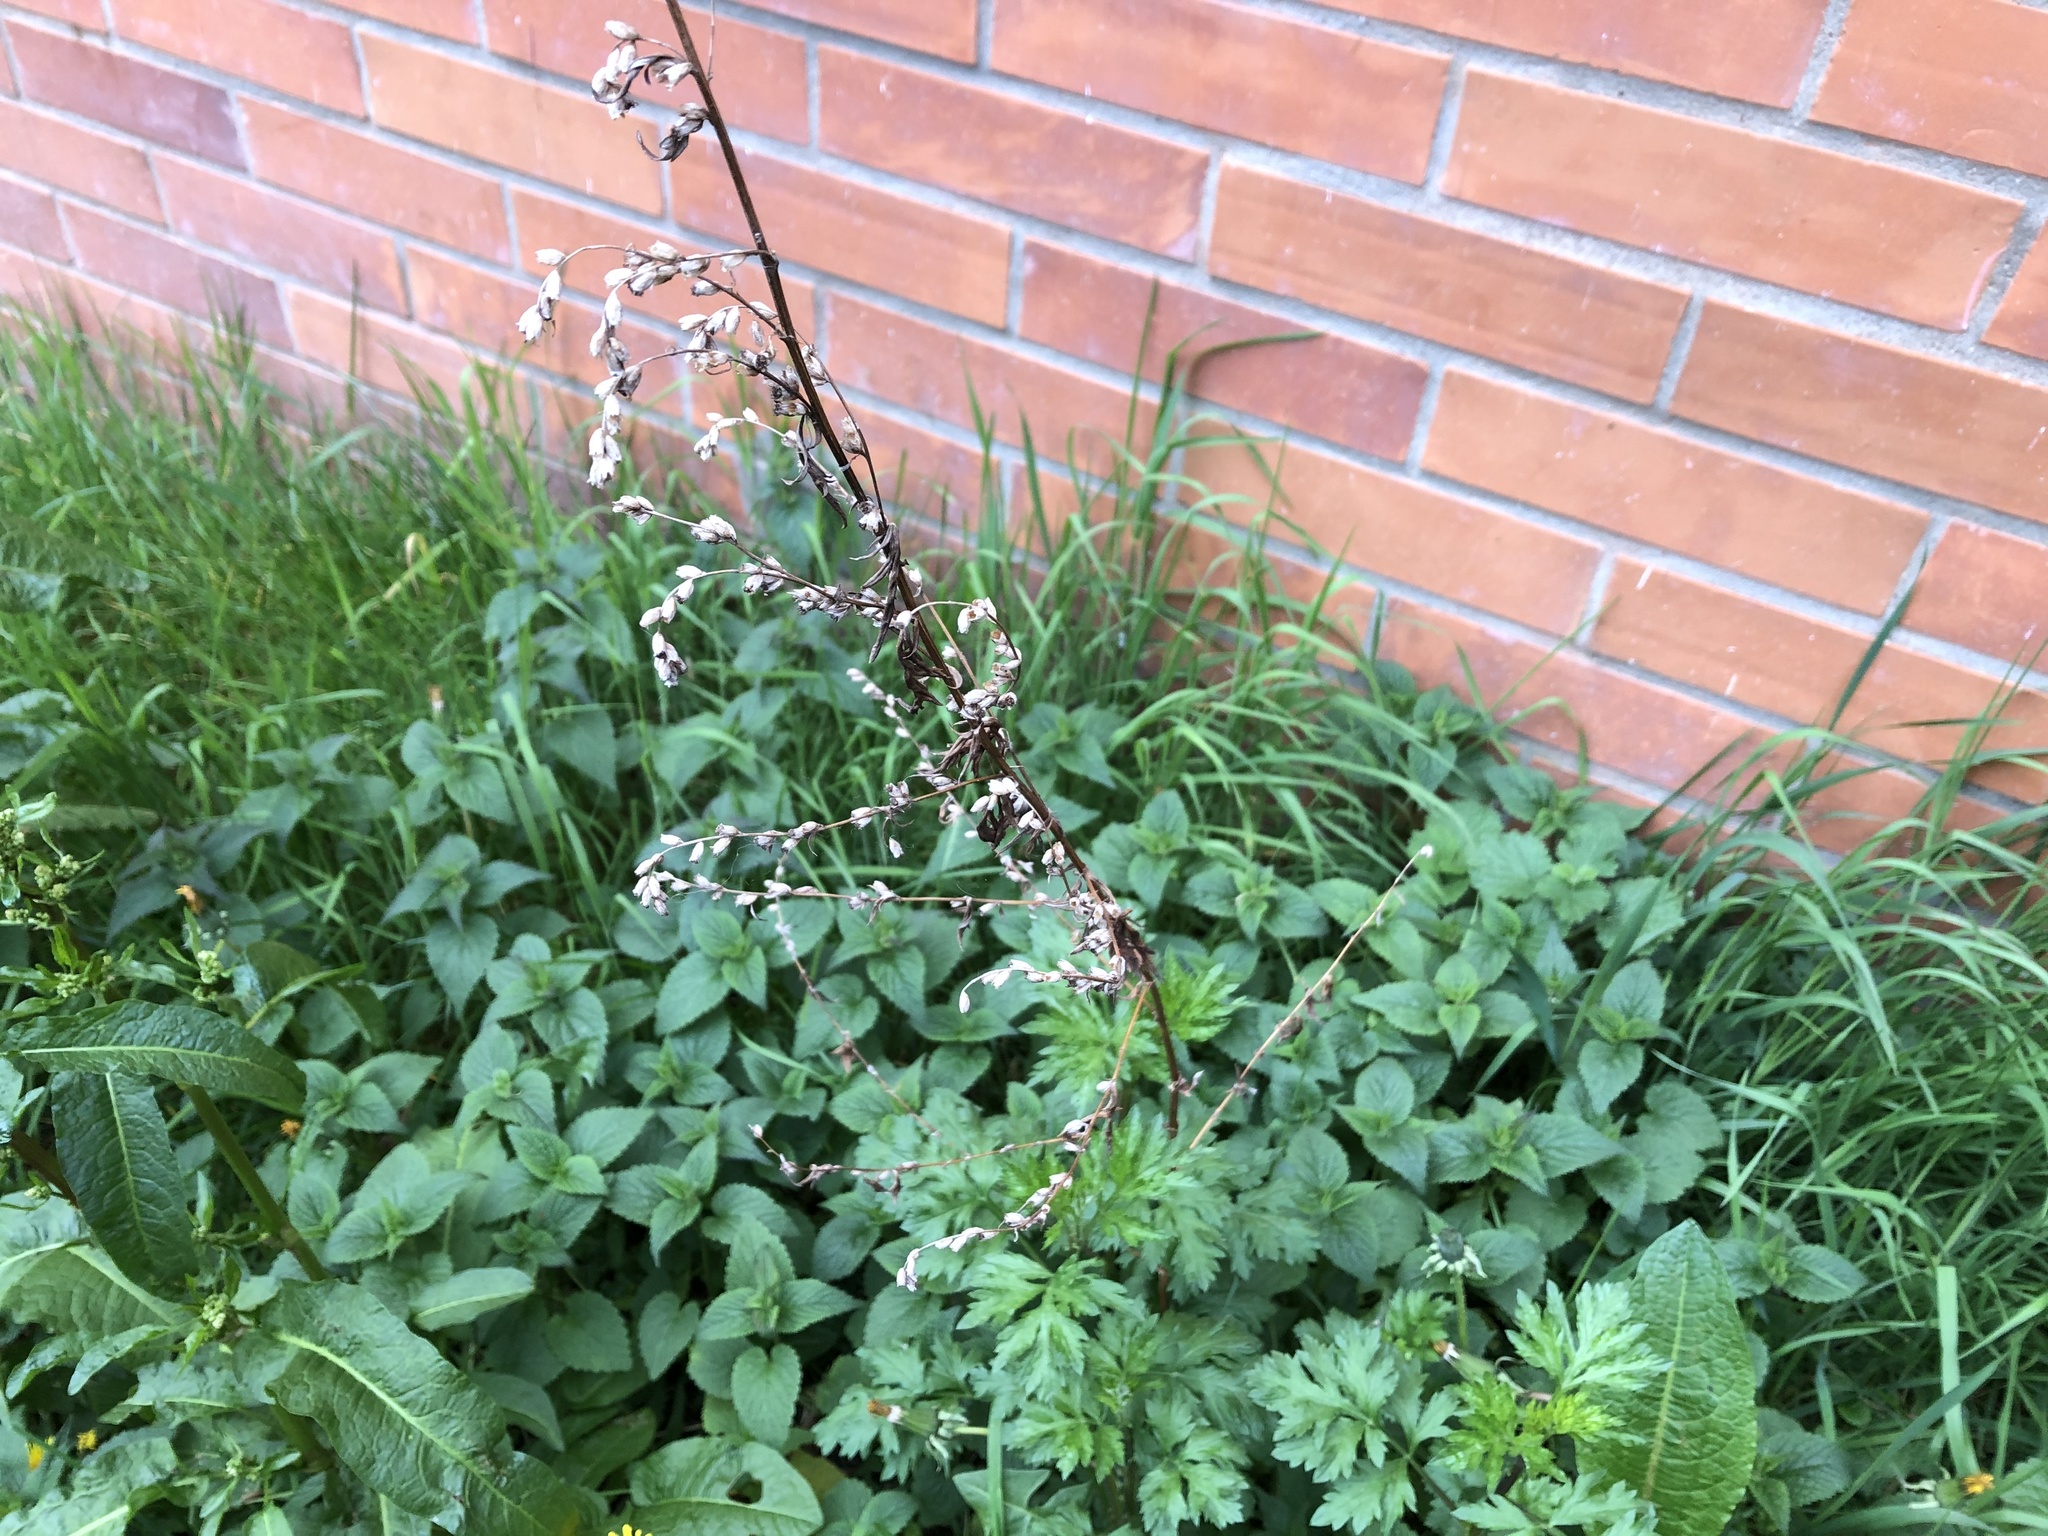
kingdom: Plantae
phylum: Tracheophyta
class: Magnoliopsida
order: Asterales
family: Asteraceae
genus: Artemisia
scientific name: Artemisia vulgaris
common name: Mugwort
